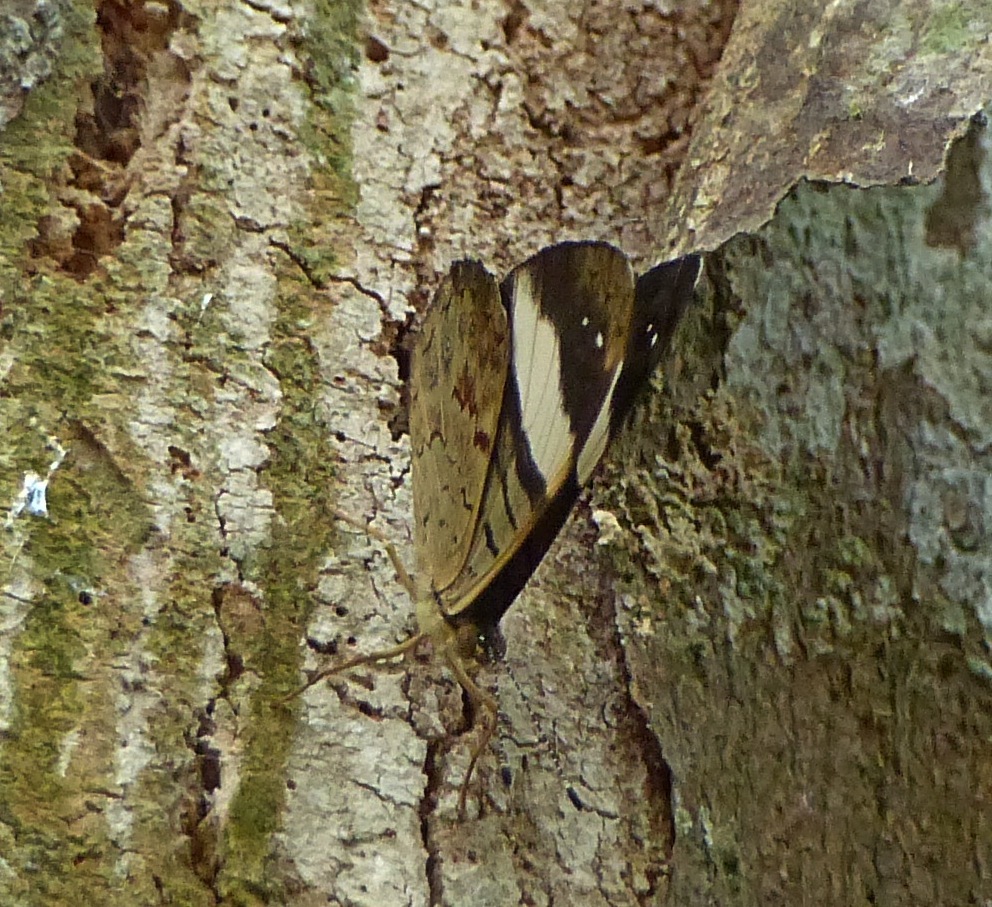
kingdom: Animalia
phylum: Arthropoda
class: Insecta
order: Lepidoptera
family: Nymphalidae
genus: Ectima
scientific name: Ectima thecla
